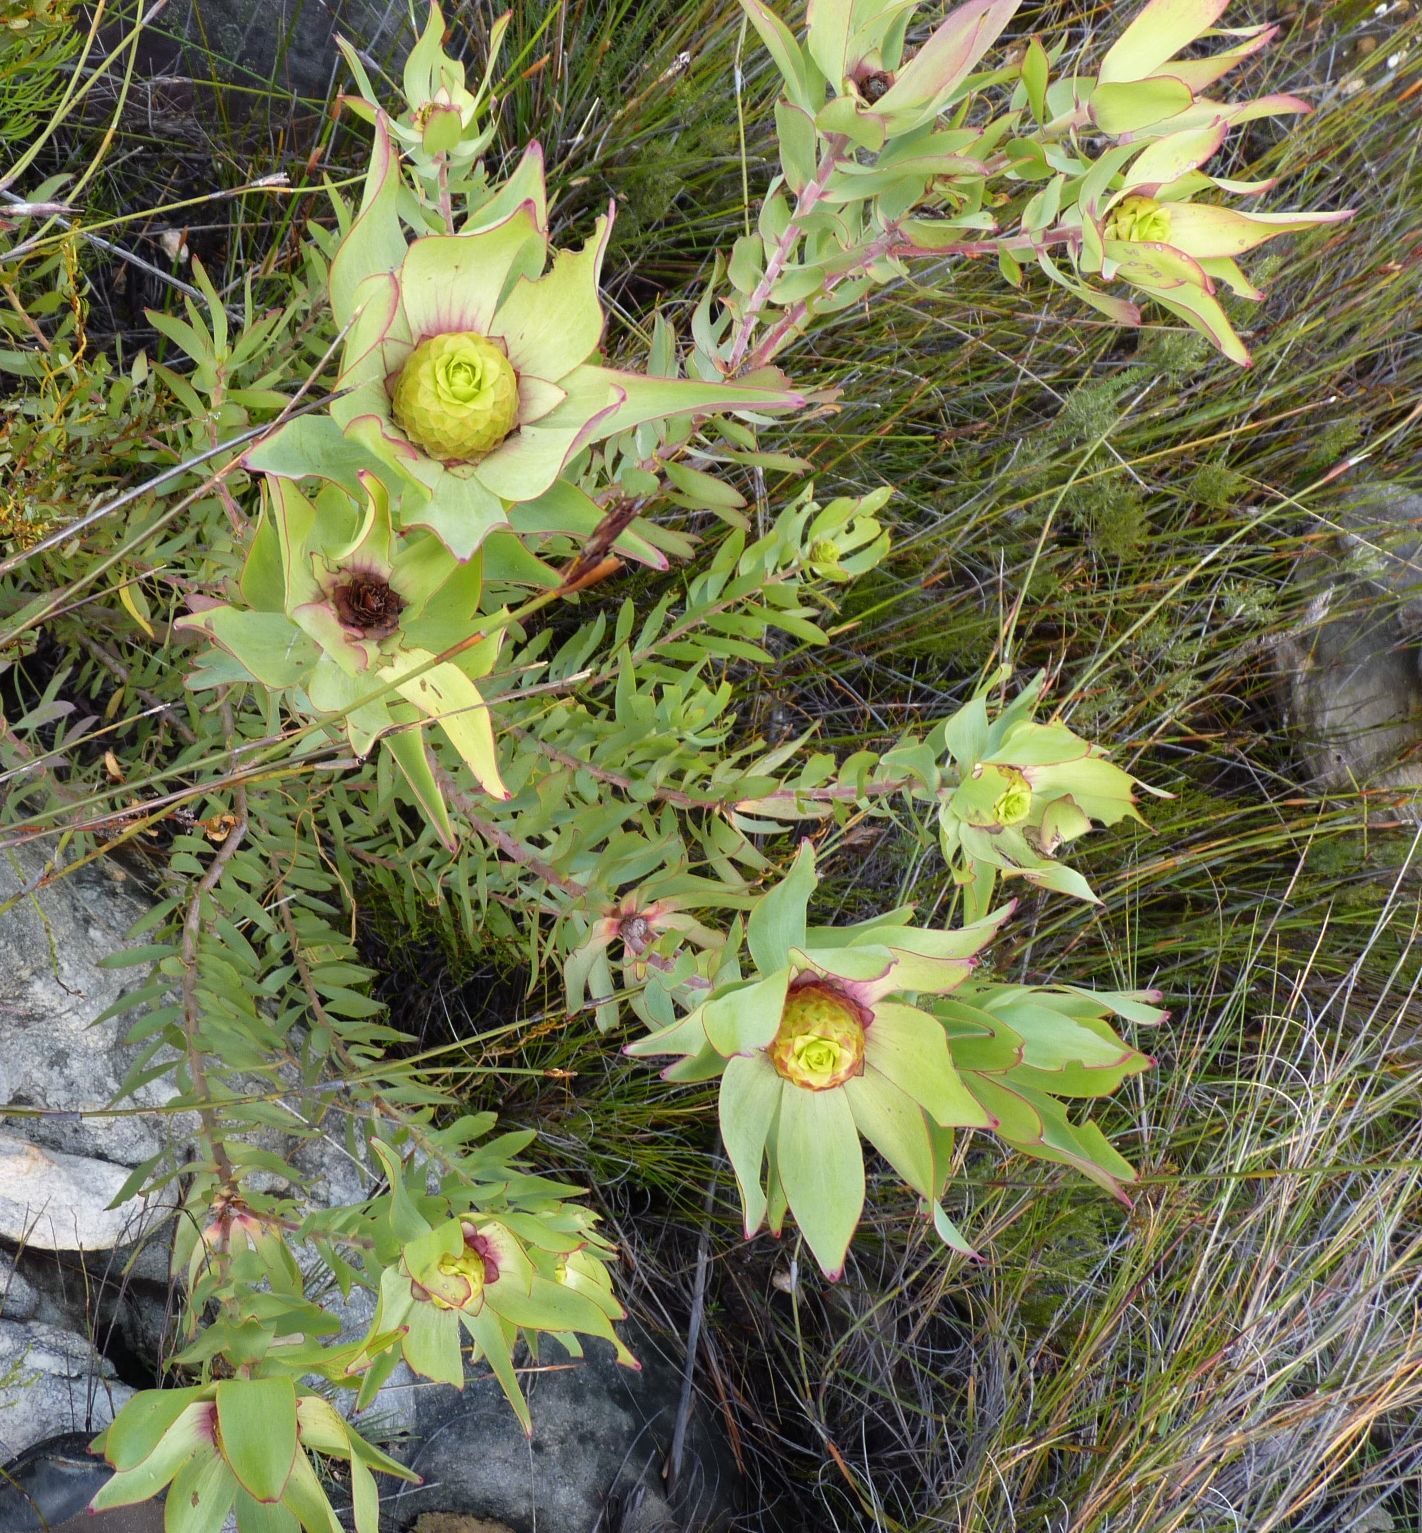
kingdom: Plantae
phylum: Tracheophyta
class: Magnoliopsida
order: Proteales
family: Proteaceae
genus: Leucadendron
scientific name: Leucadendron tinctum
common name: Spicy conebush
